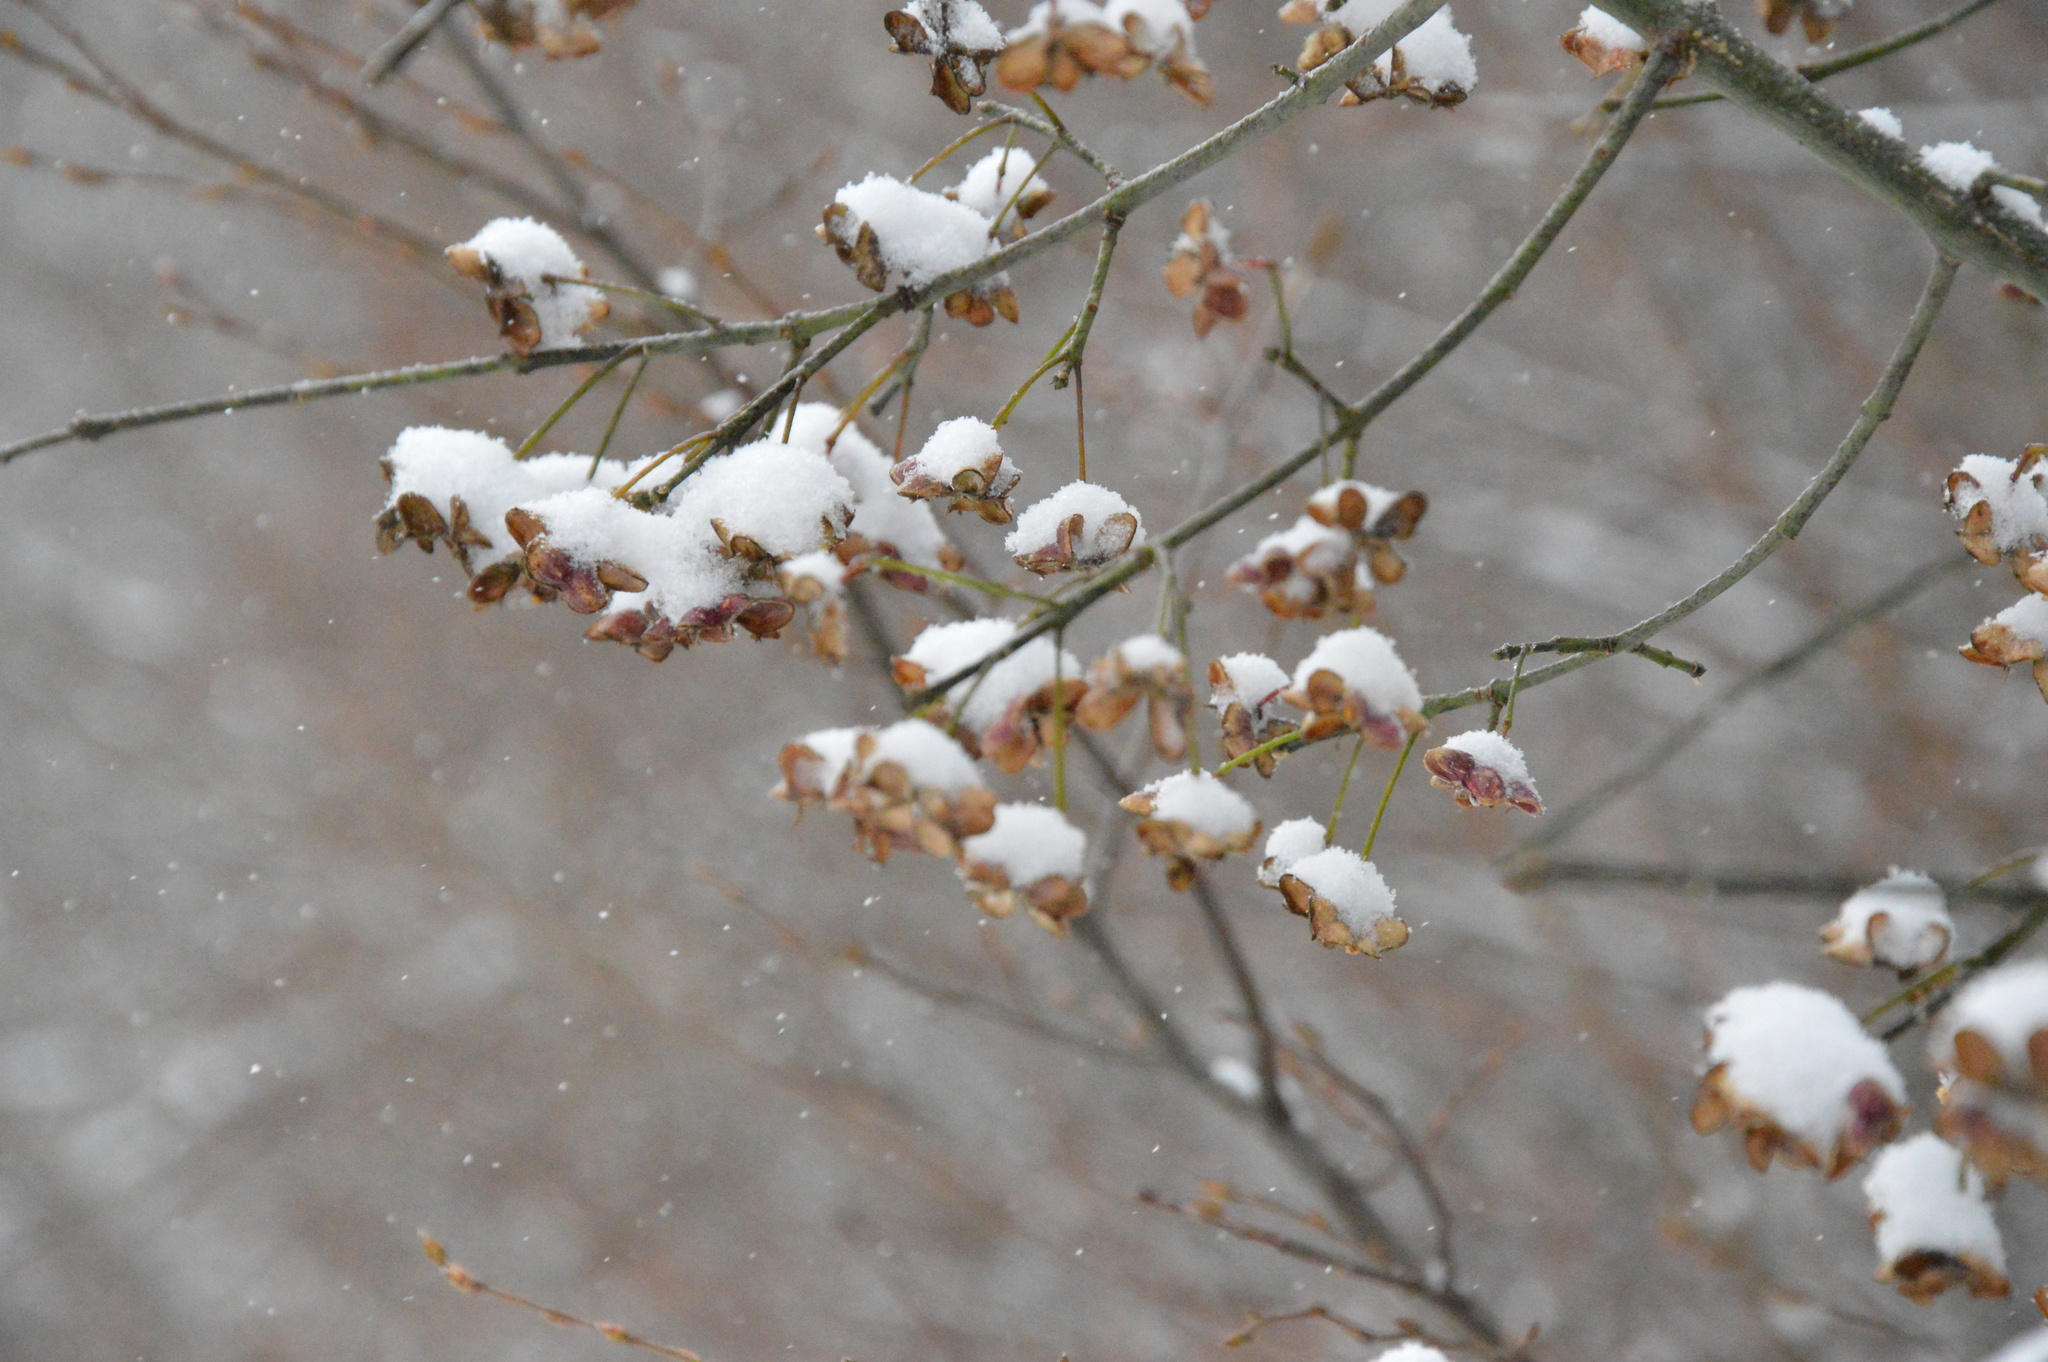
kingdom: Plantae
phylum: Tracheophyta
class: Magnoliopsida
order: Celastrales
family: Celastraceae
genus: Euonymus
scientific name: Euonymus europaeus
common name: Spindle
